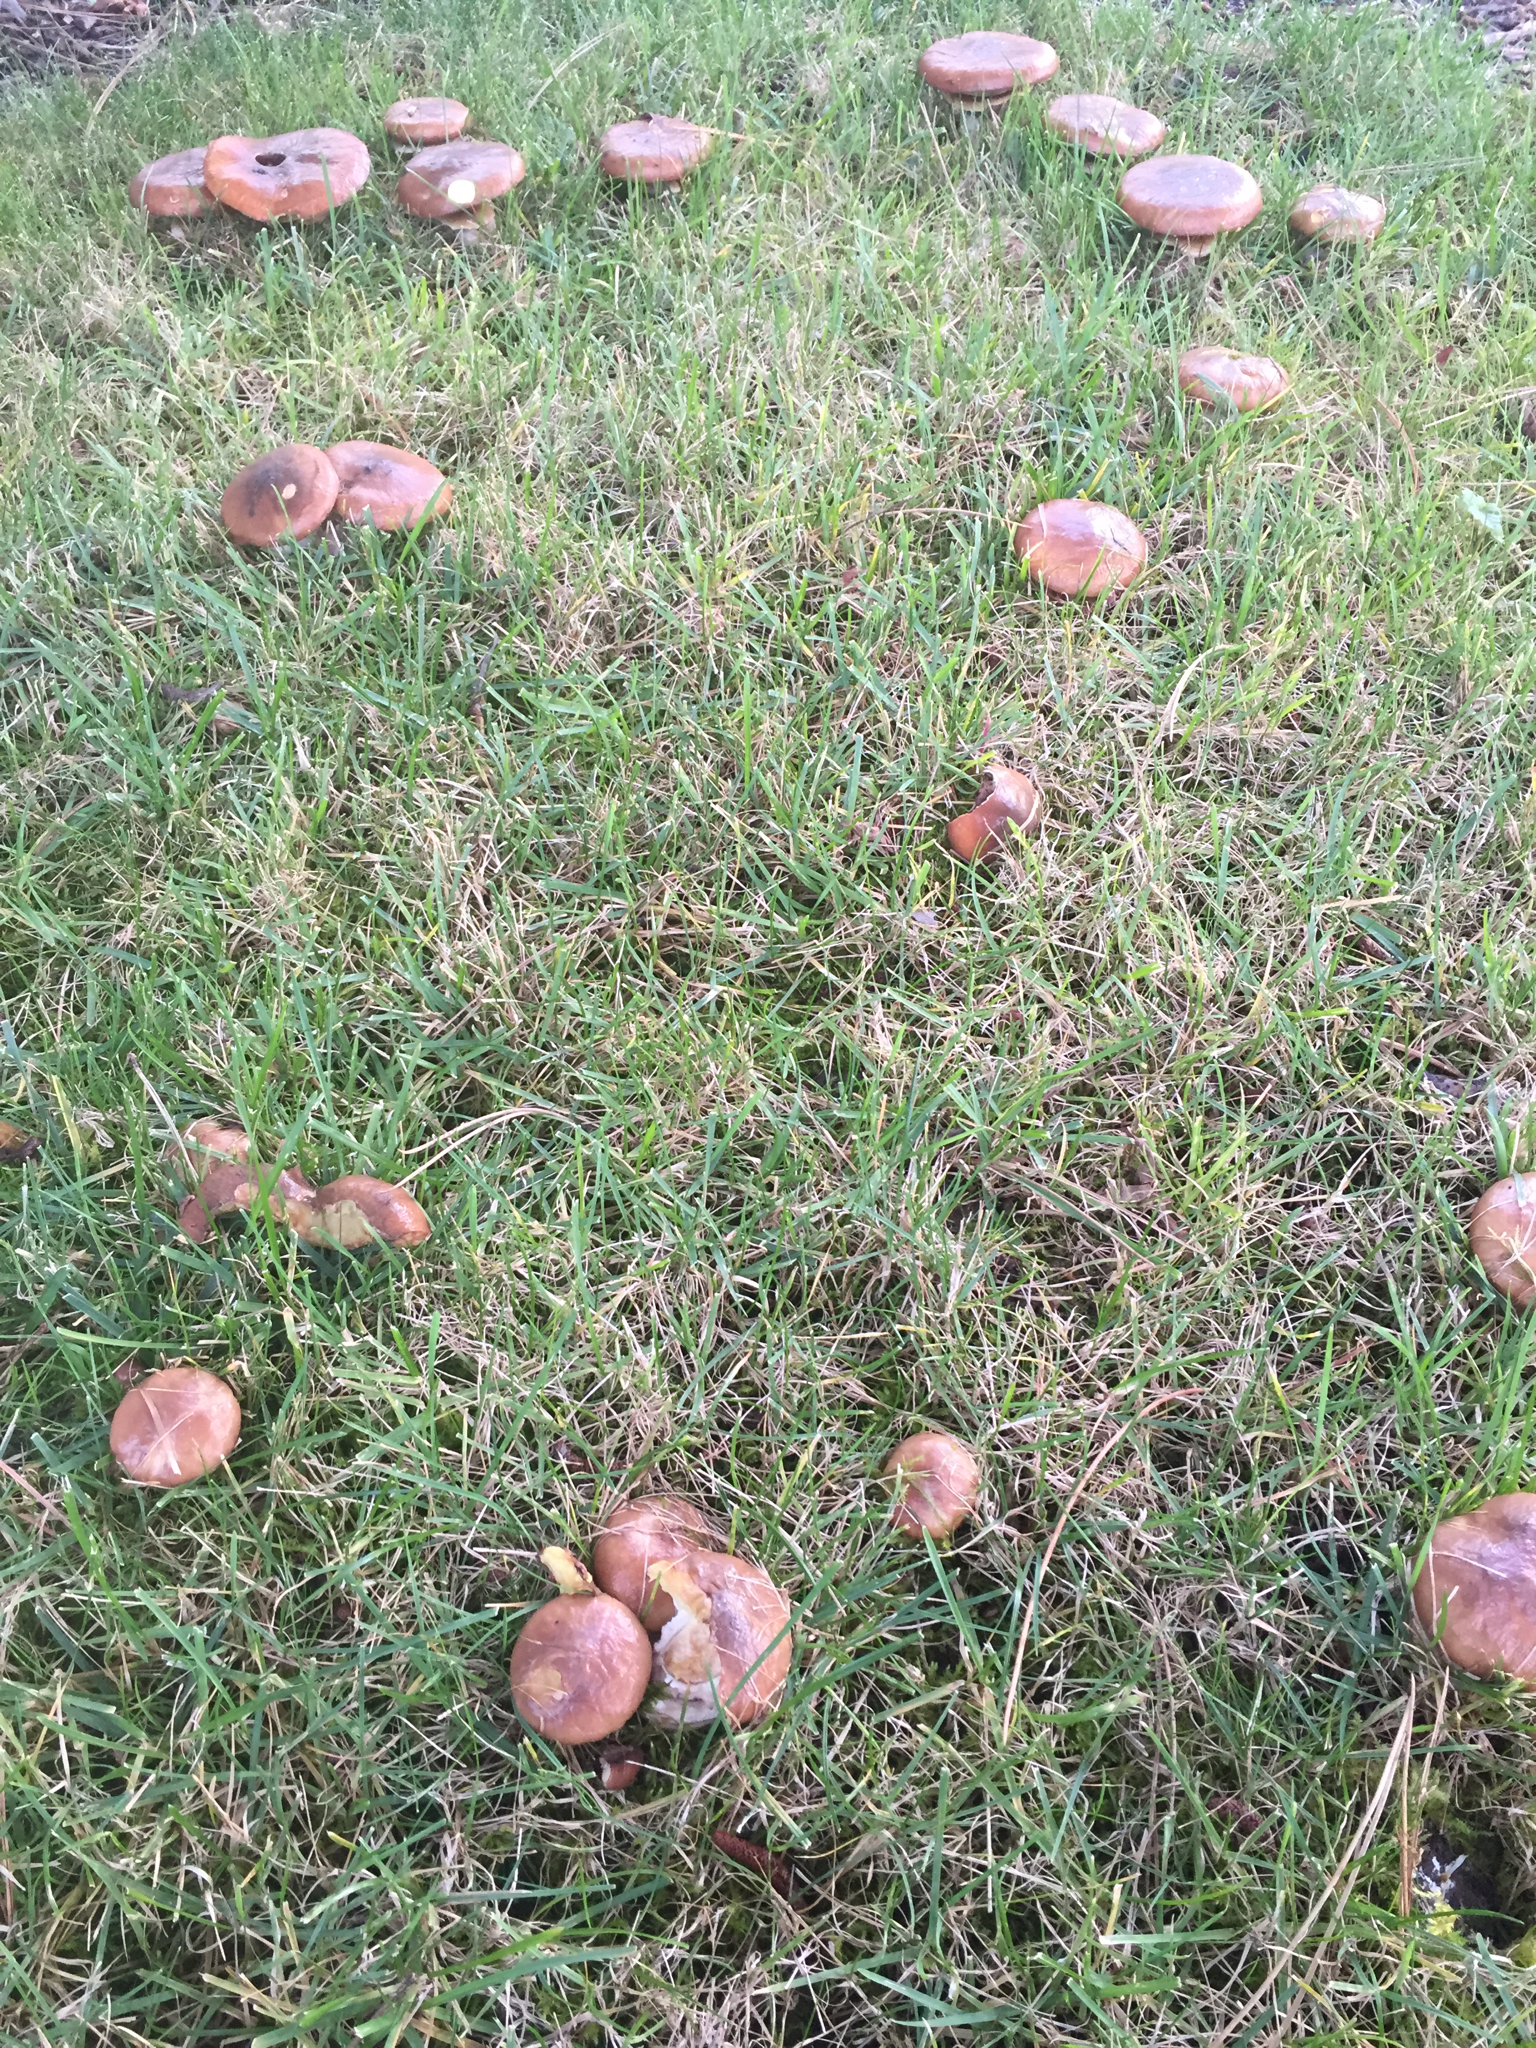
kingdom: Fungi
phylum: Basidiomycota
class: Agaricomycetes
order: Boletales
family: Suillaceae
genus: Suillus
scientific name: Suillus luteus
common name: Slippery jack
